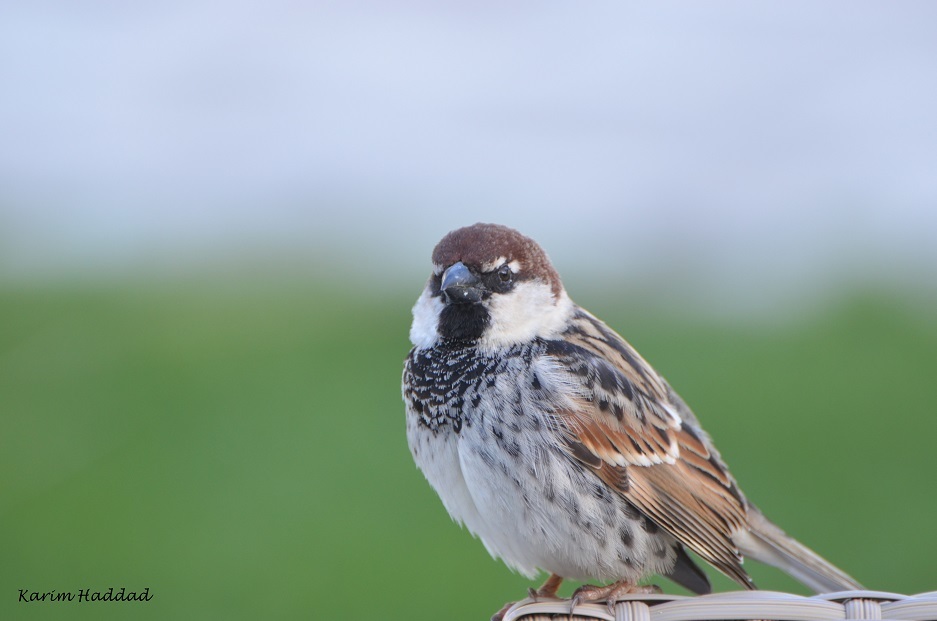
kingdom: Animalia
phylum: Chordata
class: Aves
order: Passeriformes
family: Passeridae
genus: Passer
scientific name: Passer hispaniolensis
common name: Spanish sparrow
